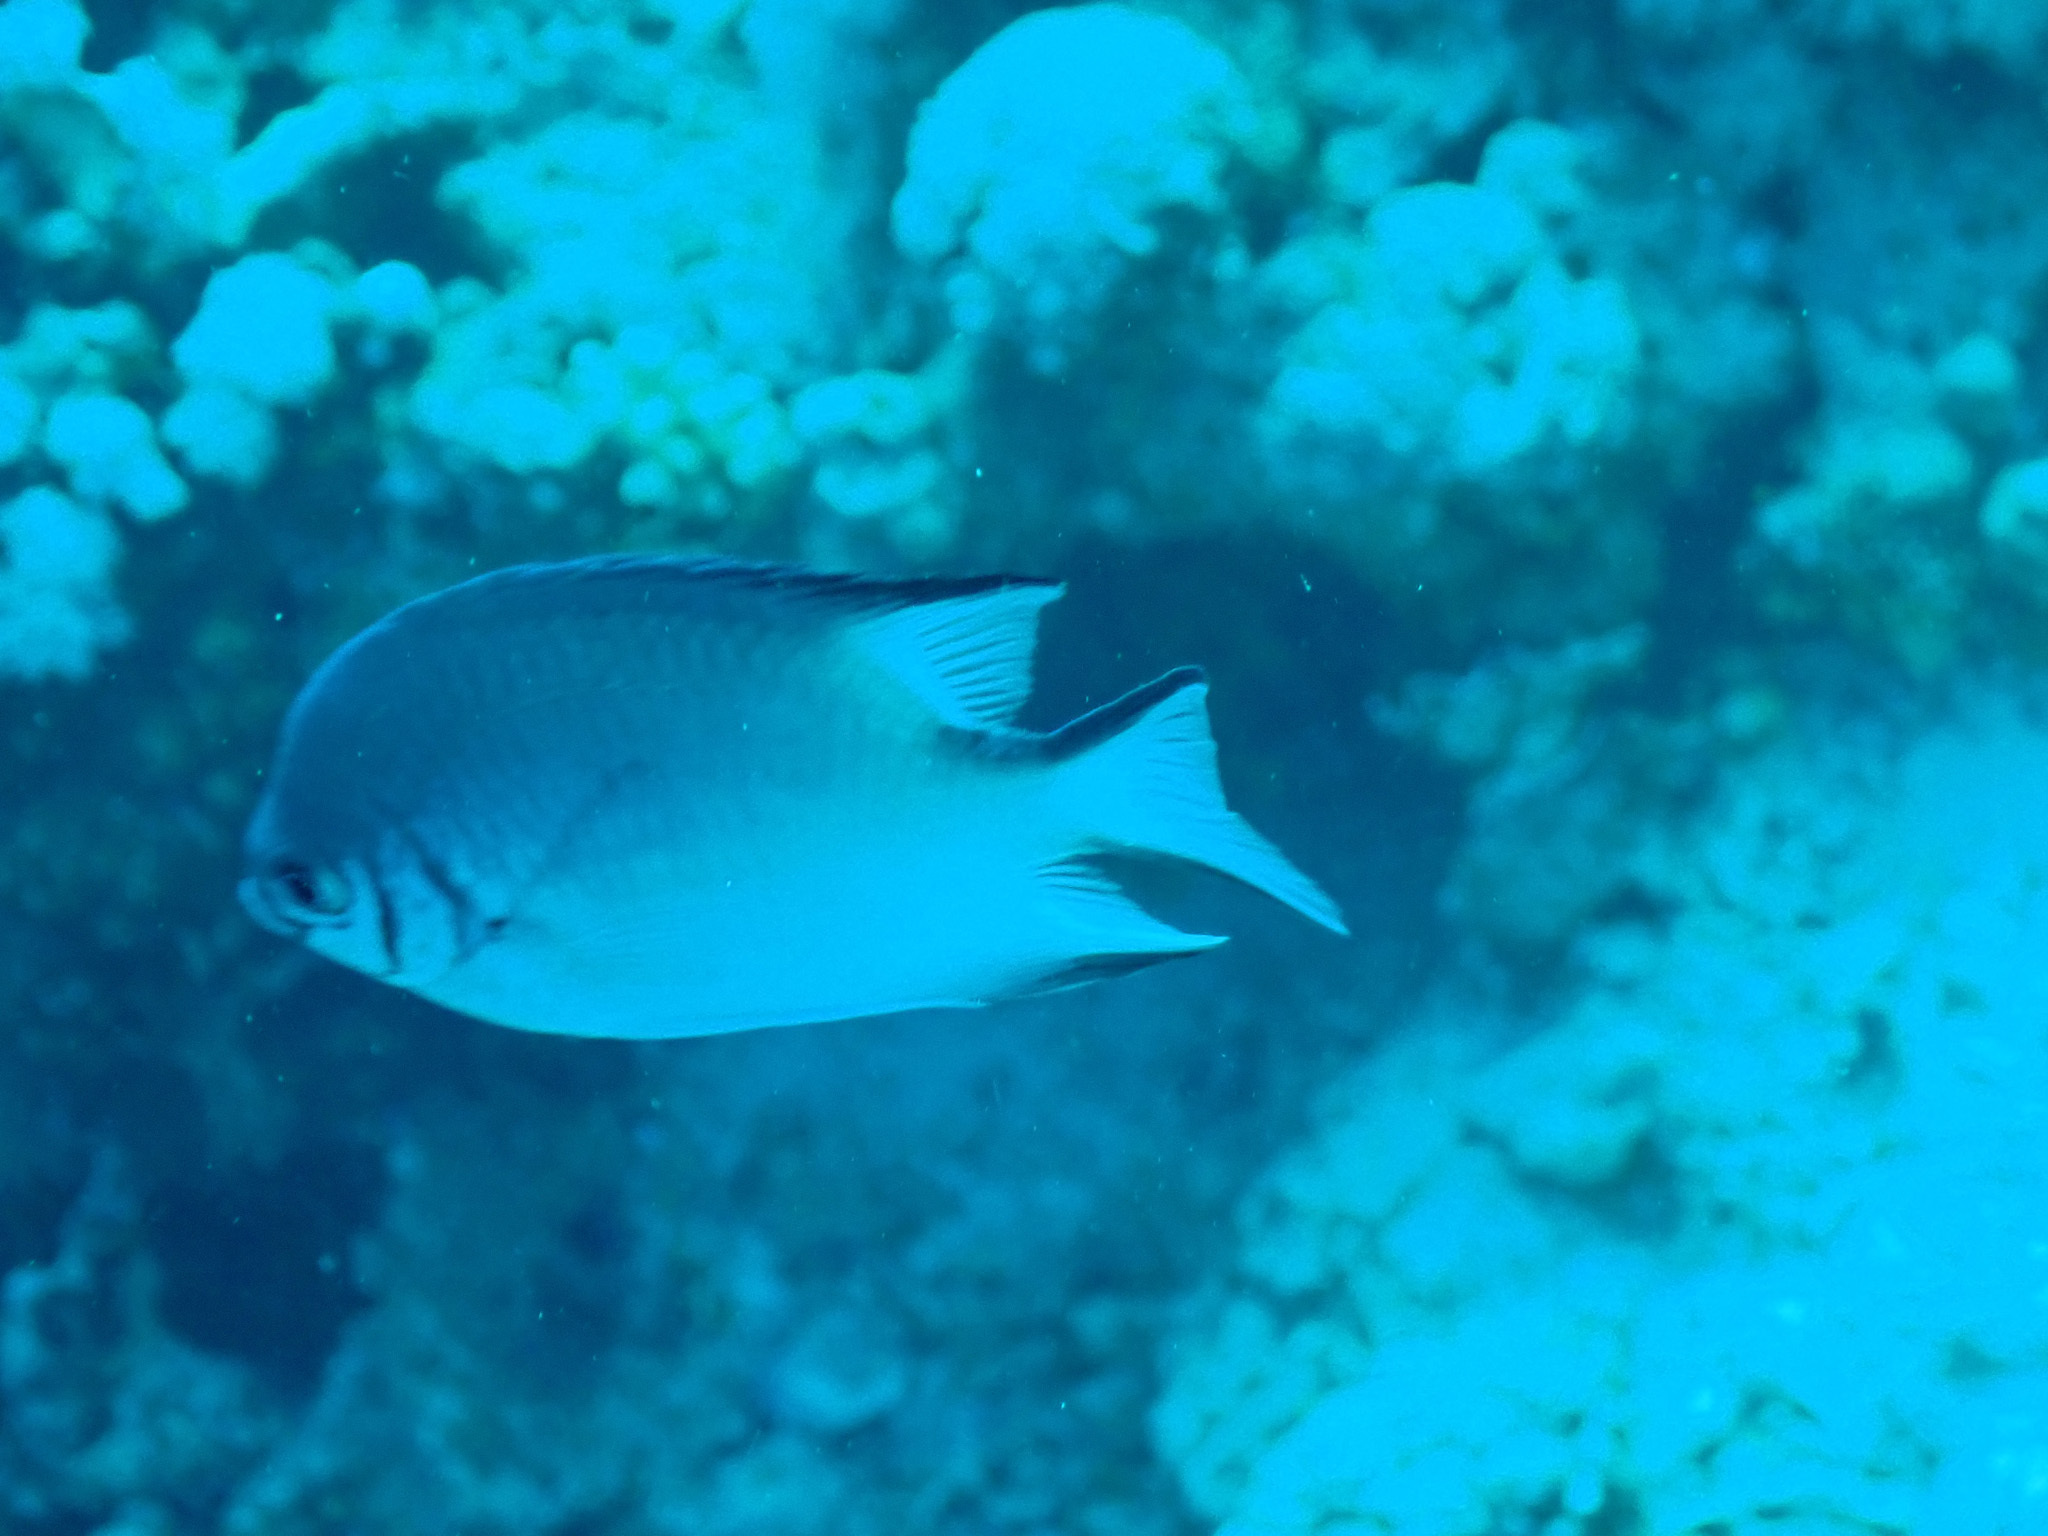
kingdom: Animalia
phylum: Chordata
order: Perciformes
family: Pomacentridae
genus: Amblyglyphidodon
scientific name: Amblyglyphidodon indicus
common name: Maldives damselfish
